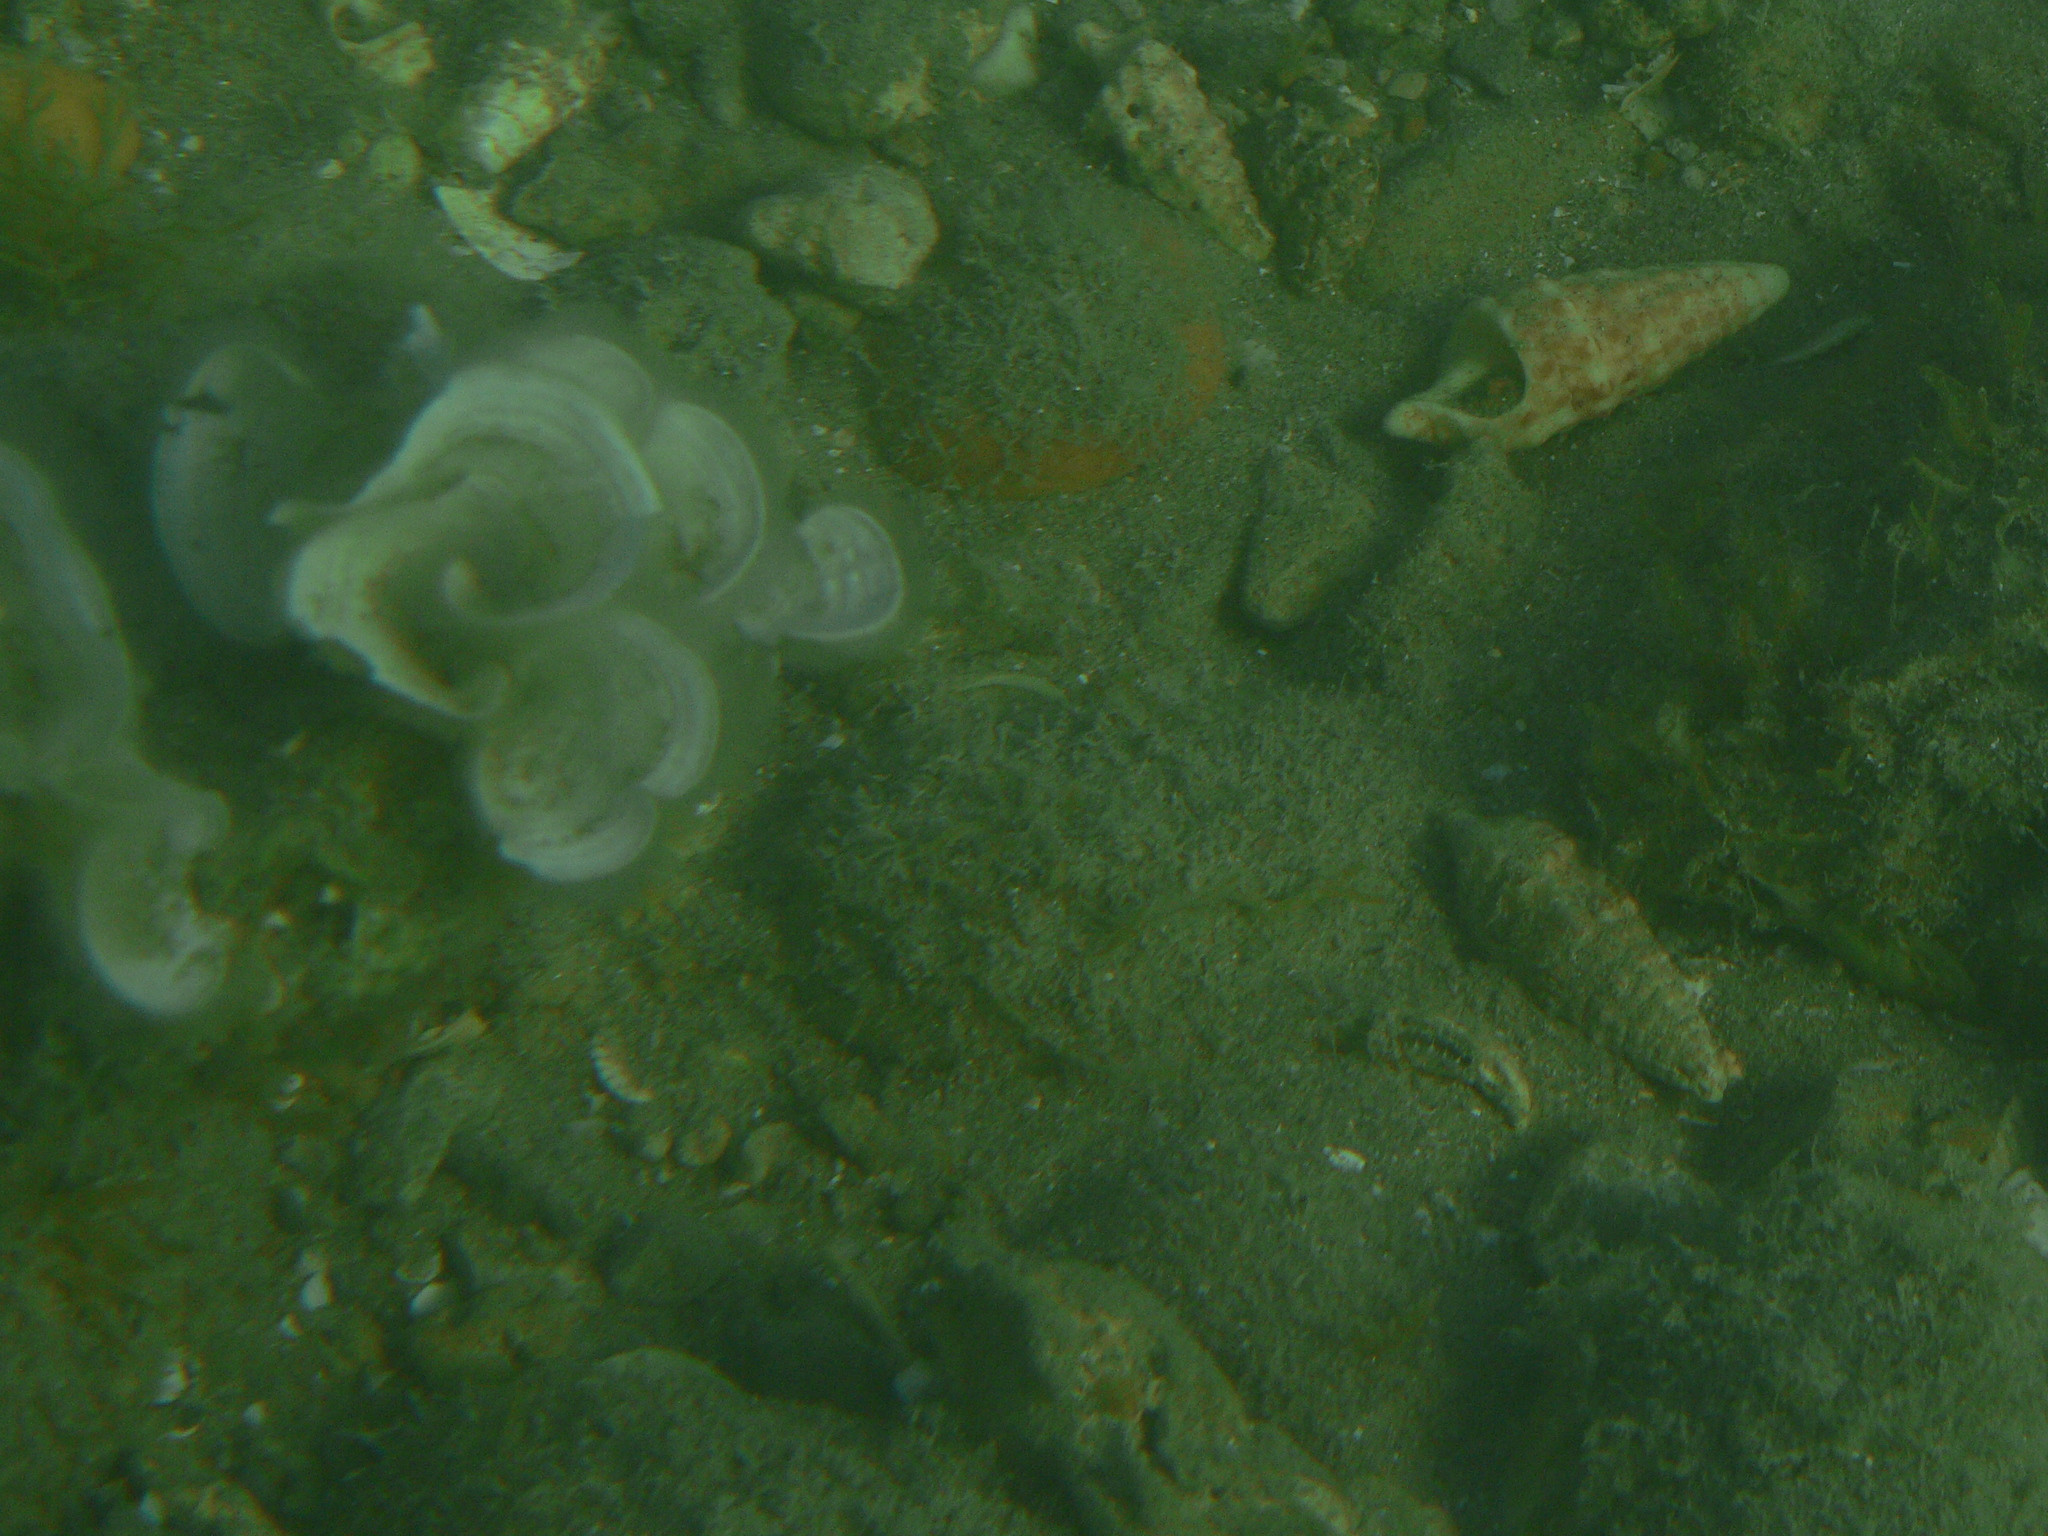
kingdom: Chromista
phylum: Ochrophyta
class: Phaeophyceae
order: Dictyotales
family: Dictyotaceae
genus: Padina
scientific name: Padina pavonica
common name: Turkey feather alga
